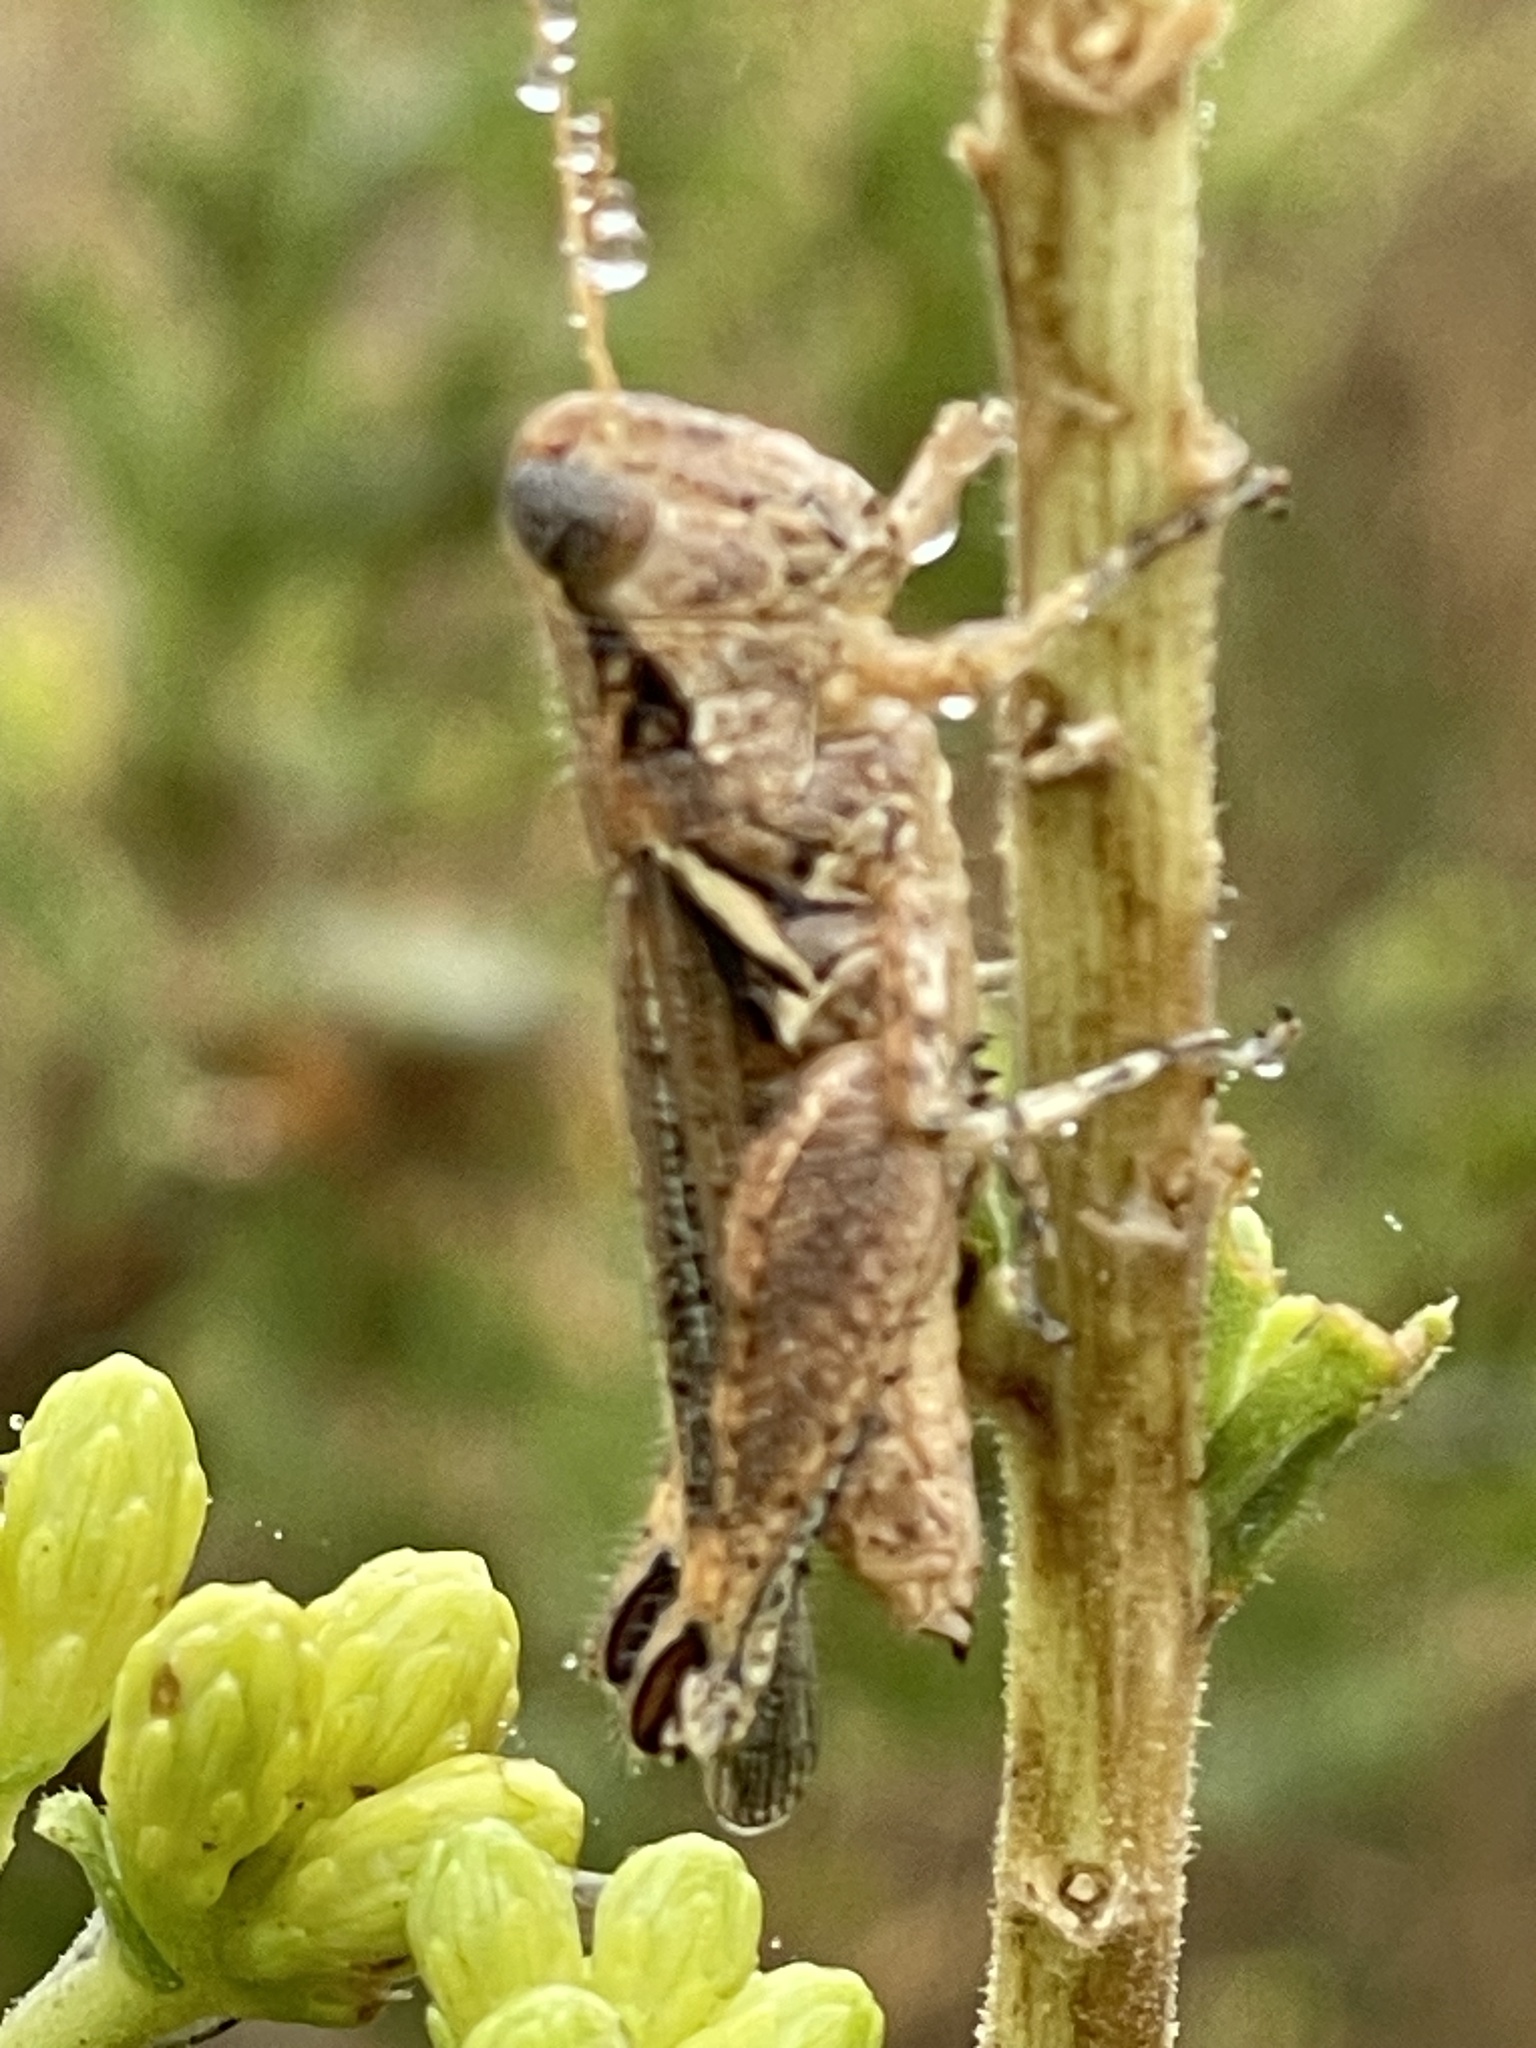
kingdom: Animalia
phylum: Arthropoda
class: Insecta
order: Orthoptera
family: Acrididae
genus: Melanoplus
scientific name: Melanoplus cinereus
